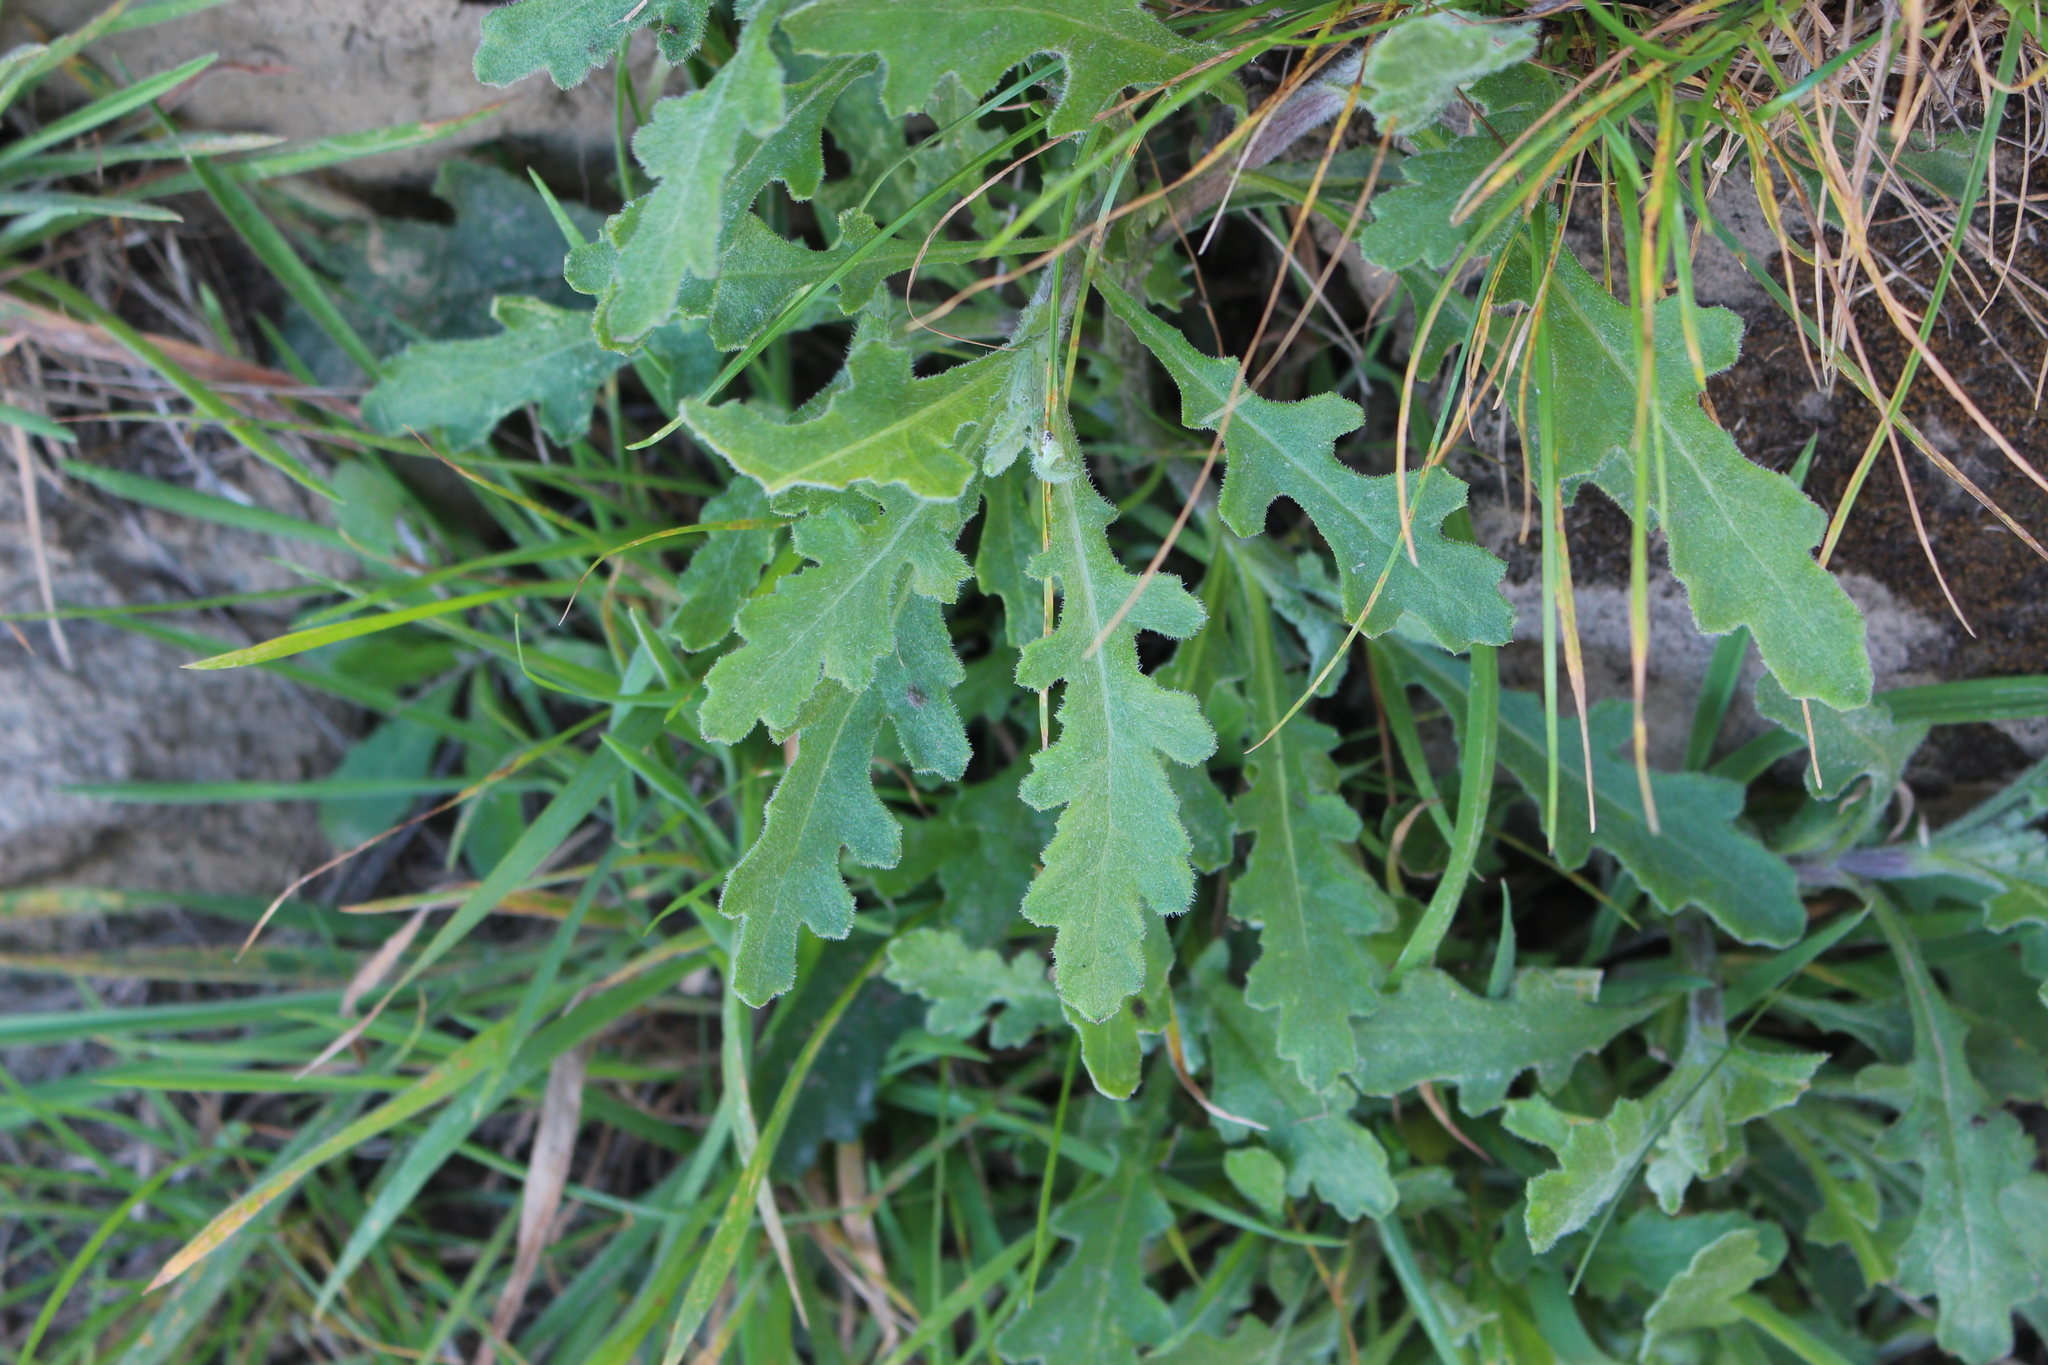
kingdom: Plantae
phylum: Tracheophyta
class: Magnoliopsida
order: Asterales
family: Asteraceae
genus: Senecio
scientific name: Senecio glomeratus
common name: Cutleaf burnweed
